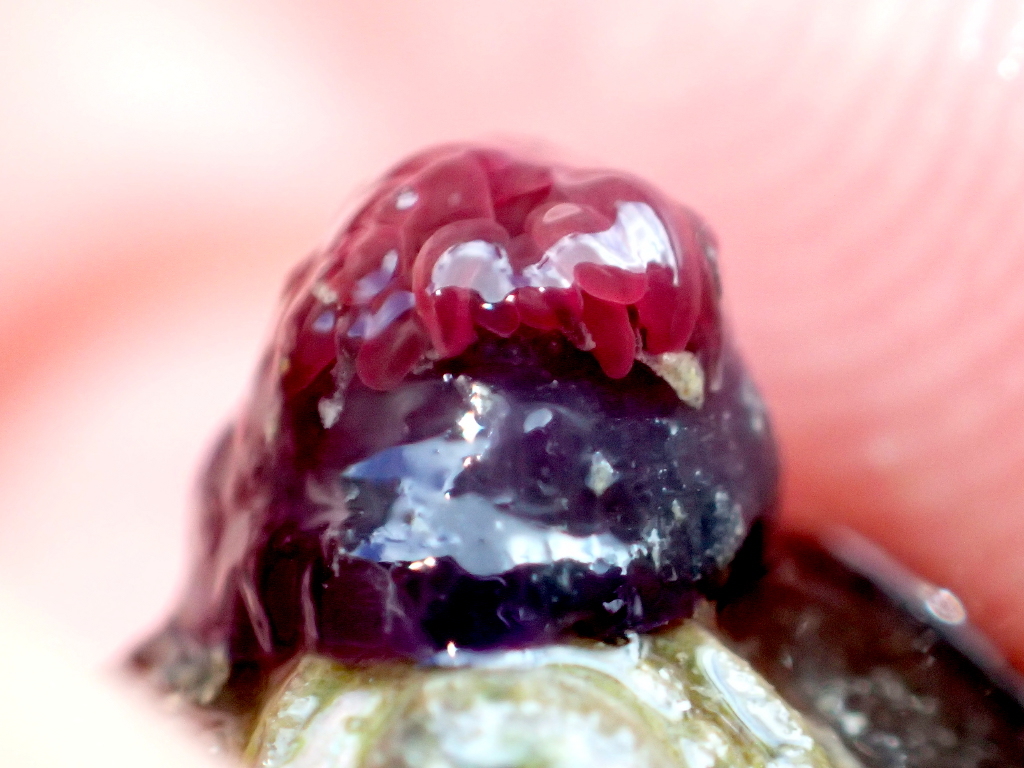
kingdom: Animalia
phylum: Cnidaria
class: Anthozoa
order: Actiniaria
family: Actiniidae
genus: Actinia
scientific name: Actinia tenebrosa
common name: Waratah anemone
